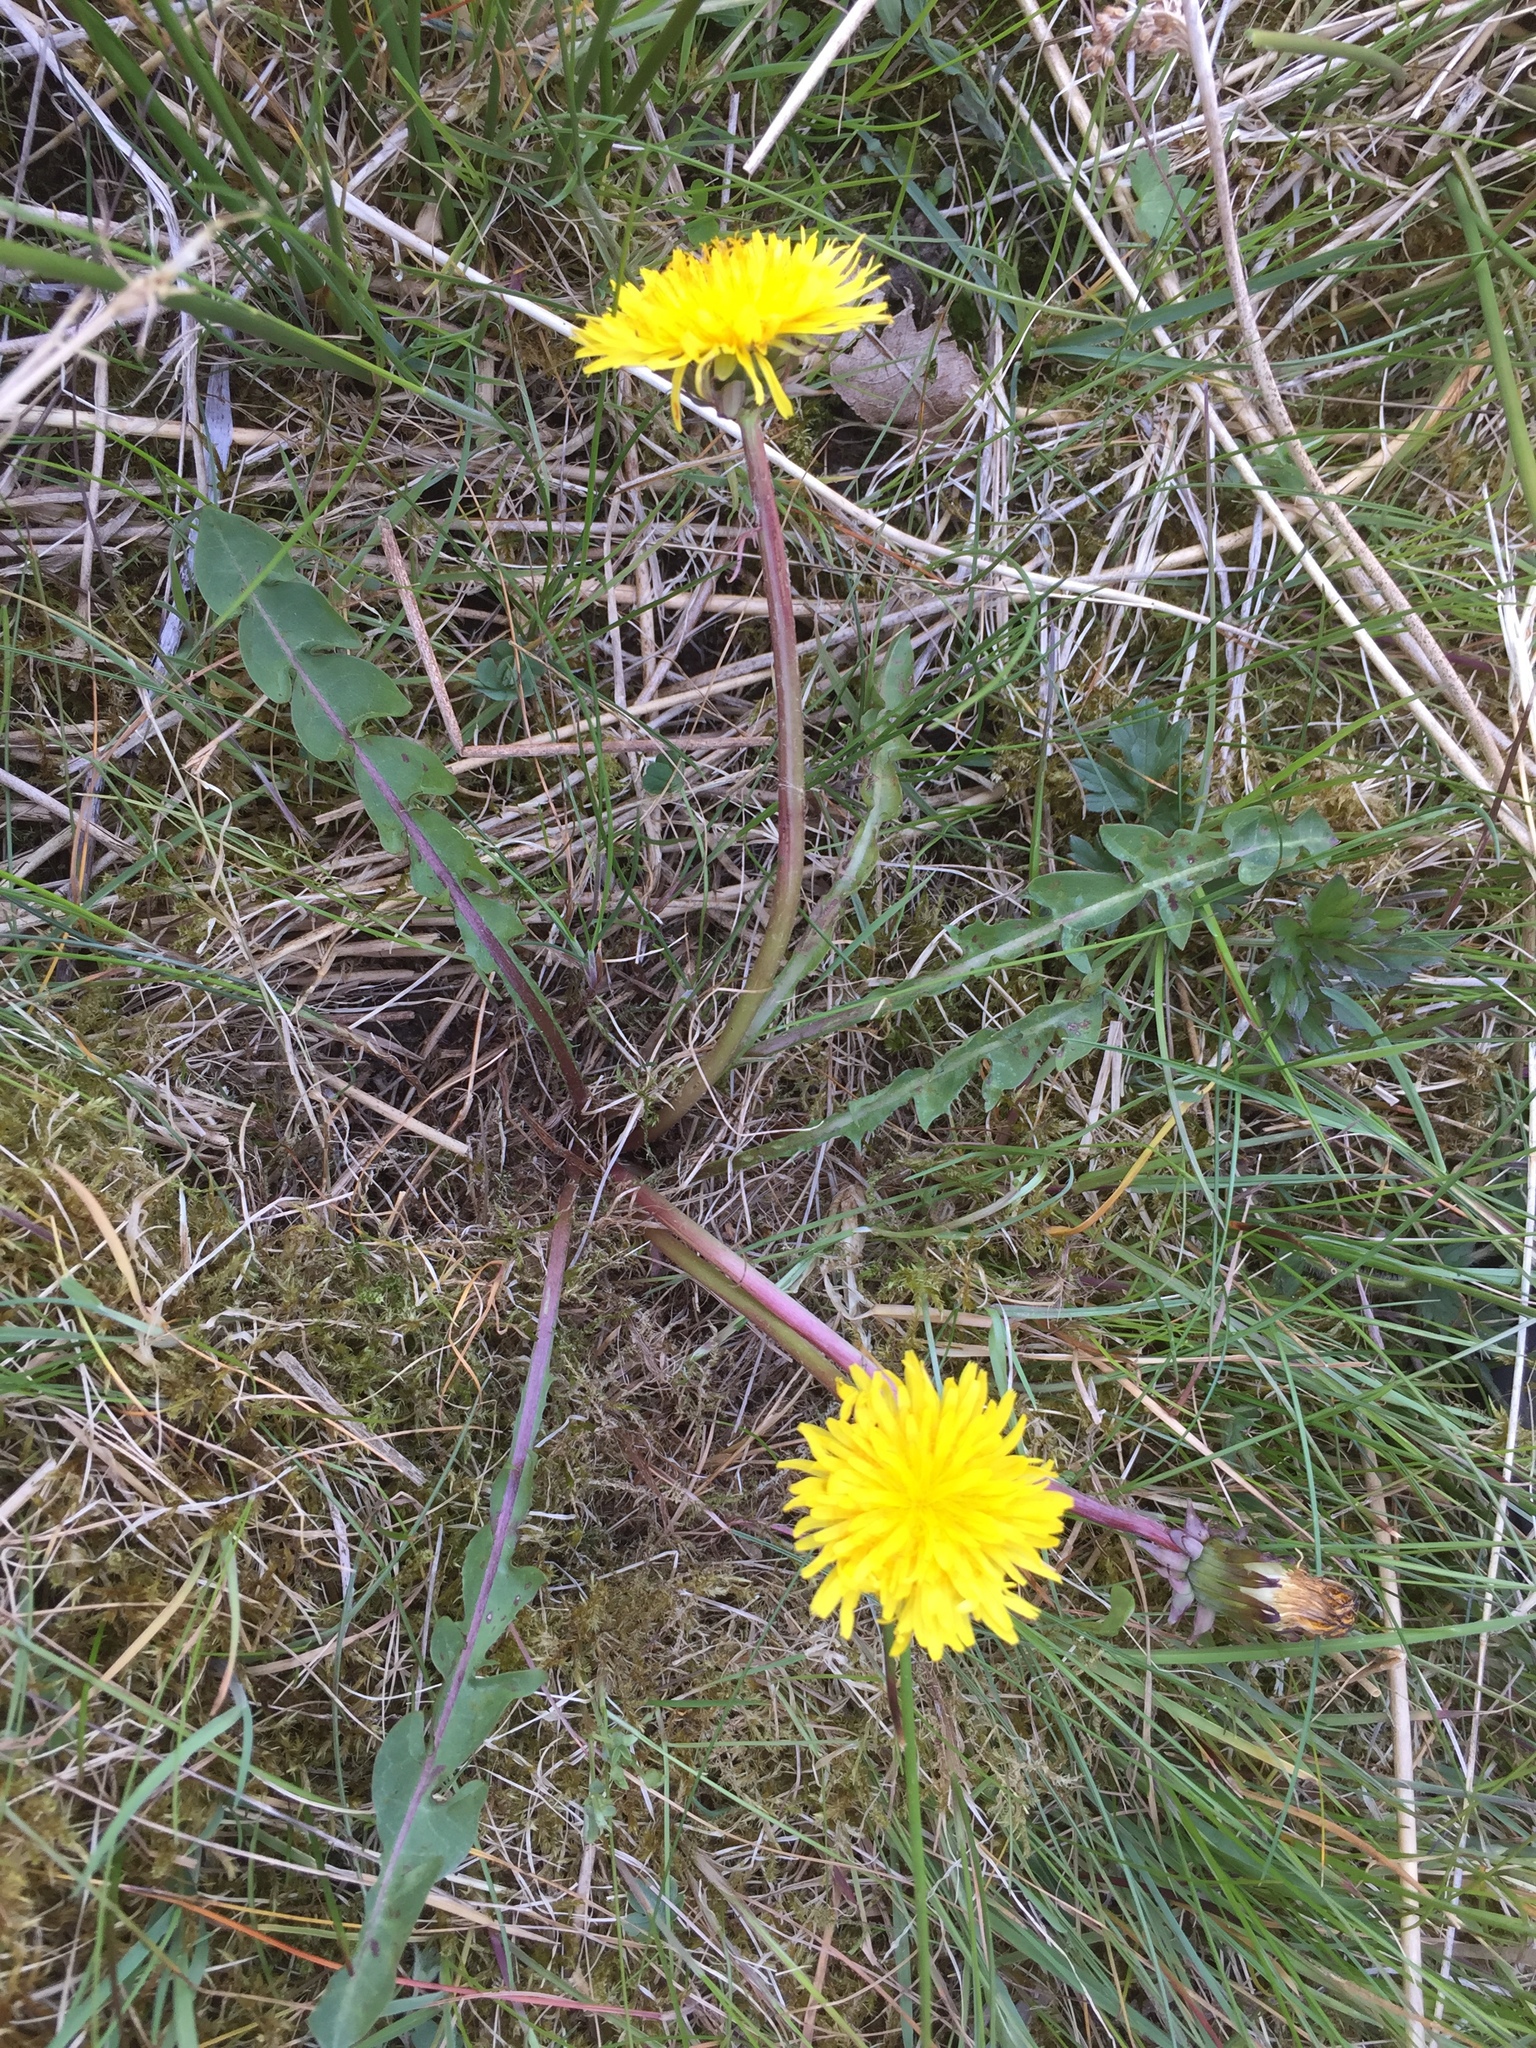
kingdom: Plantae
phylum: Tracheophyta
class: Magnoliopsida
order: Asterales
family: Asteraceae
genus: Taraxacum
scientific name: Taraxacum bracteatum
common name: Dark-green dandelion
